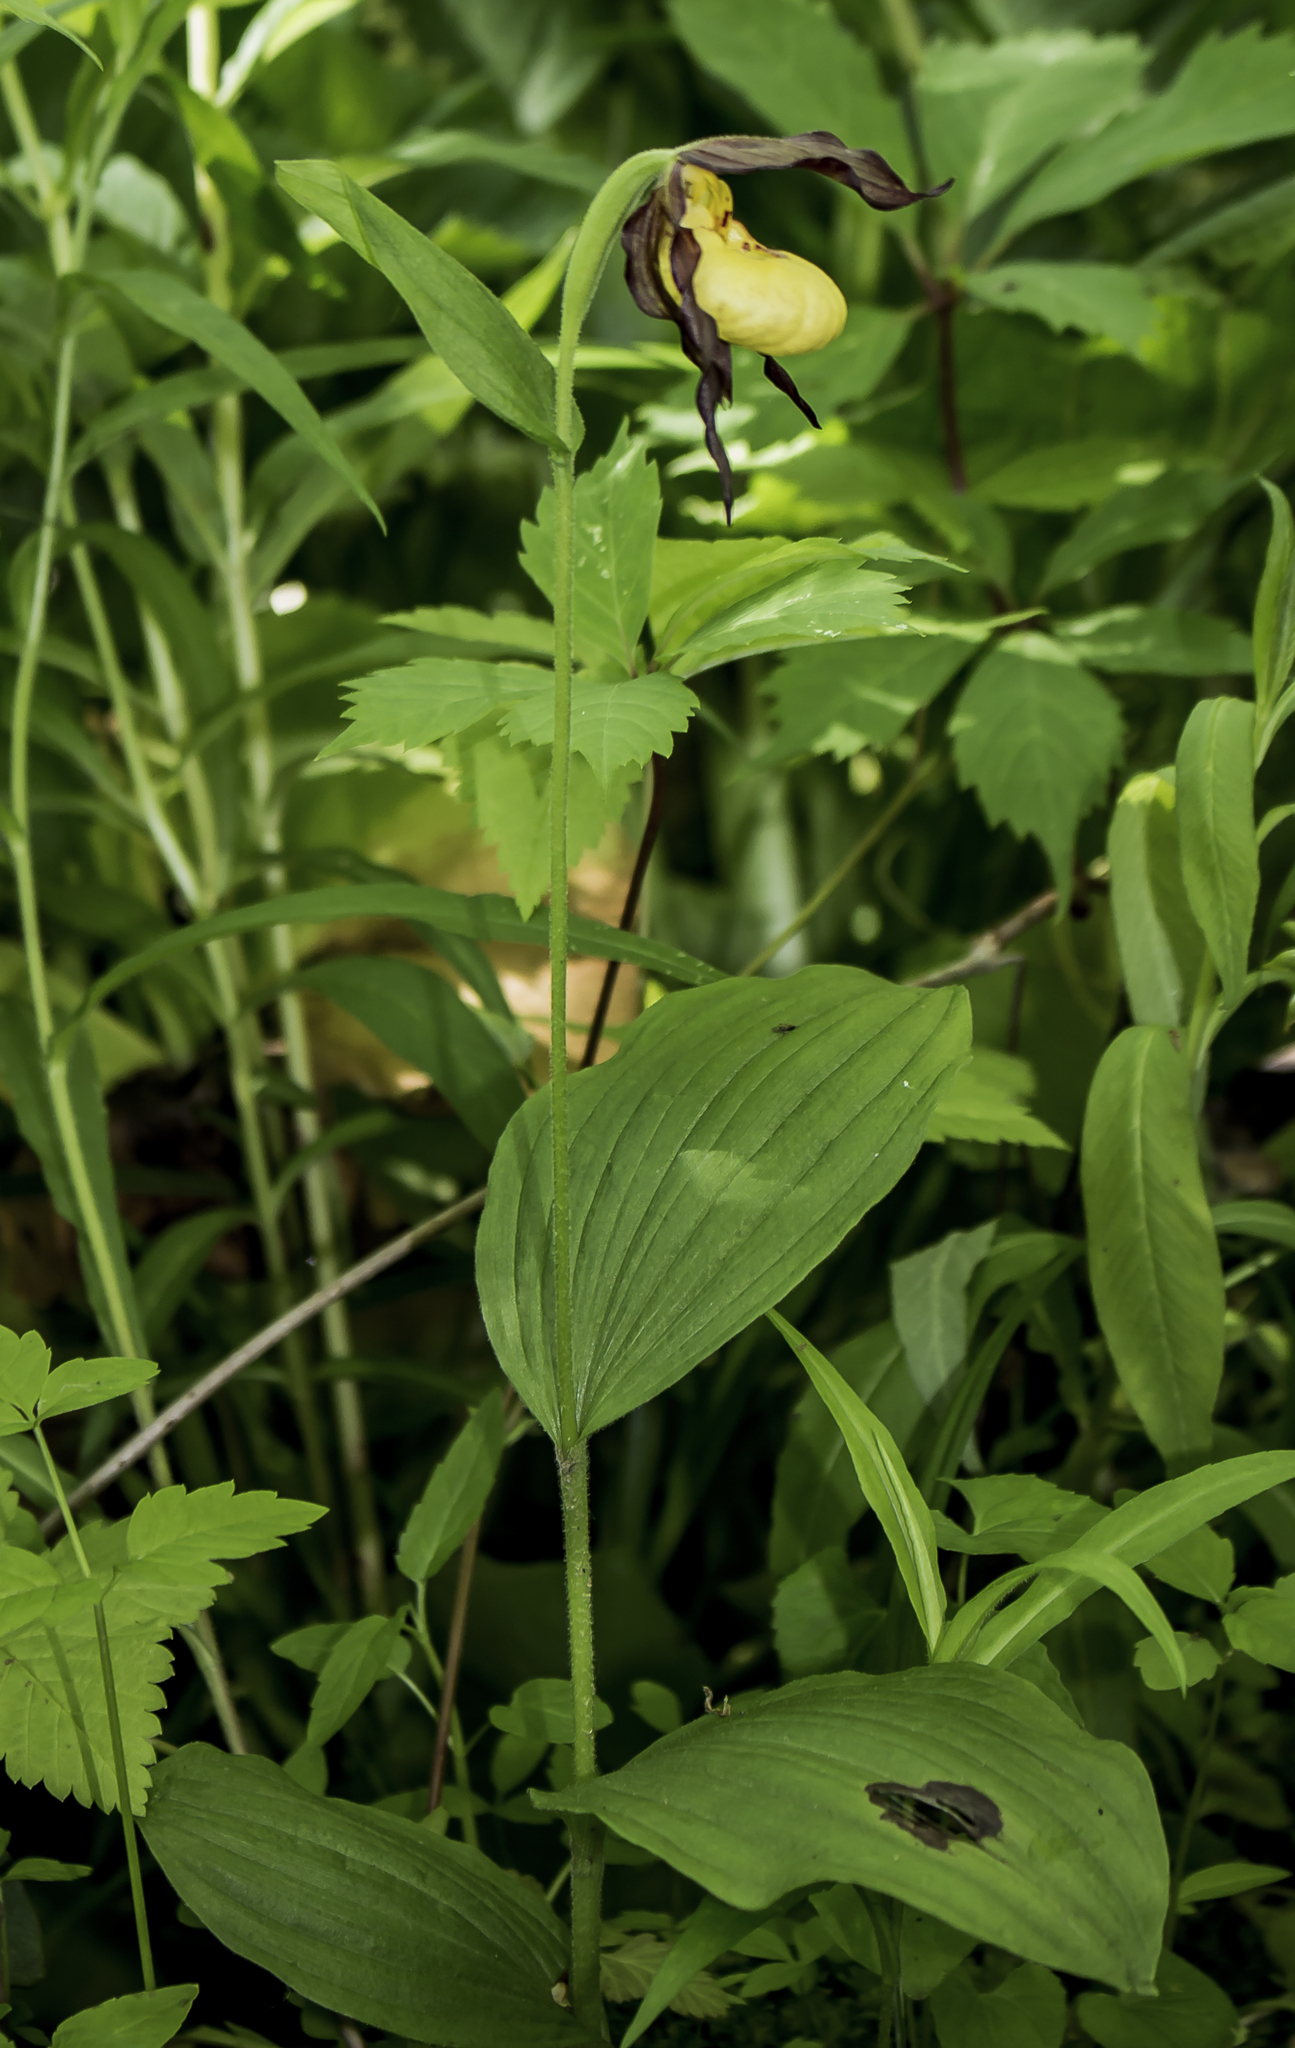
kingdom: Plantae
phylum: Tracheophyta
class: Liliopsida
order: Asparagales
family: Orchidaceae
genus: Cypripedium
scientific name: Cypripedium parviflorum
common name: American yellow lady's-slipper
